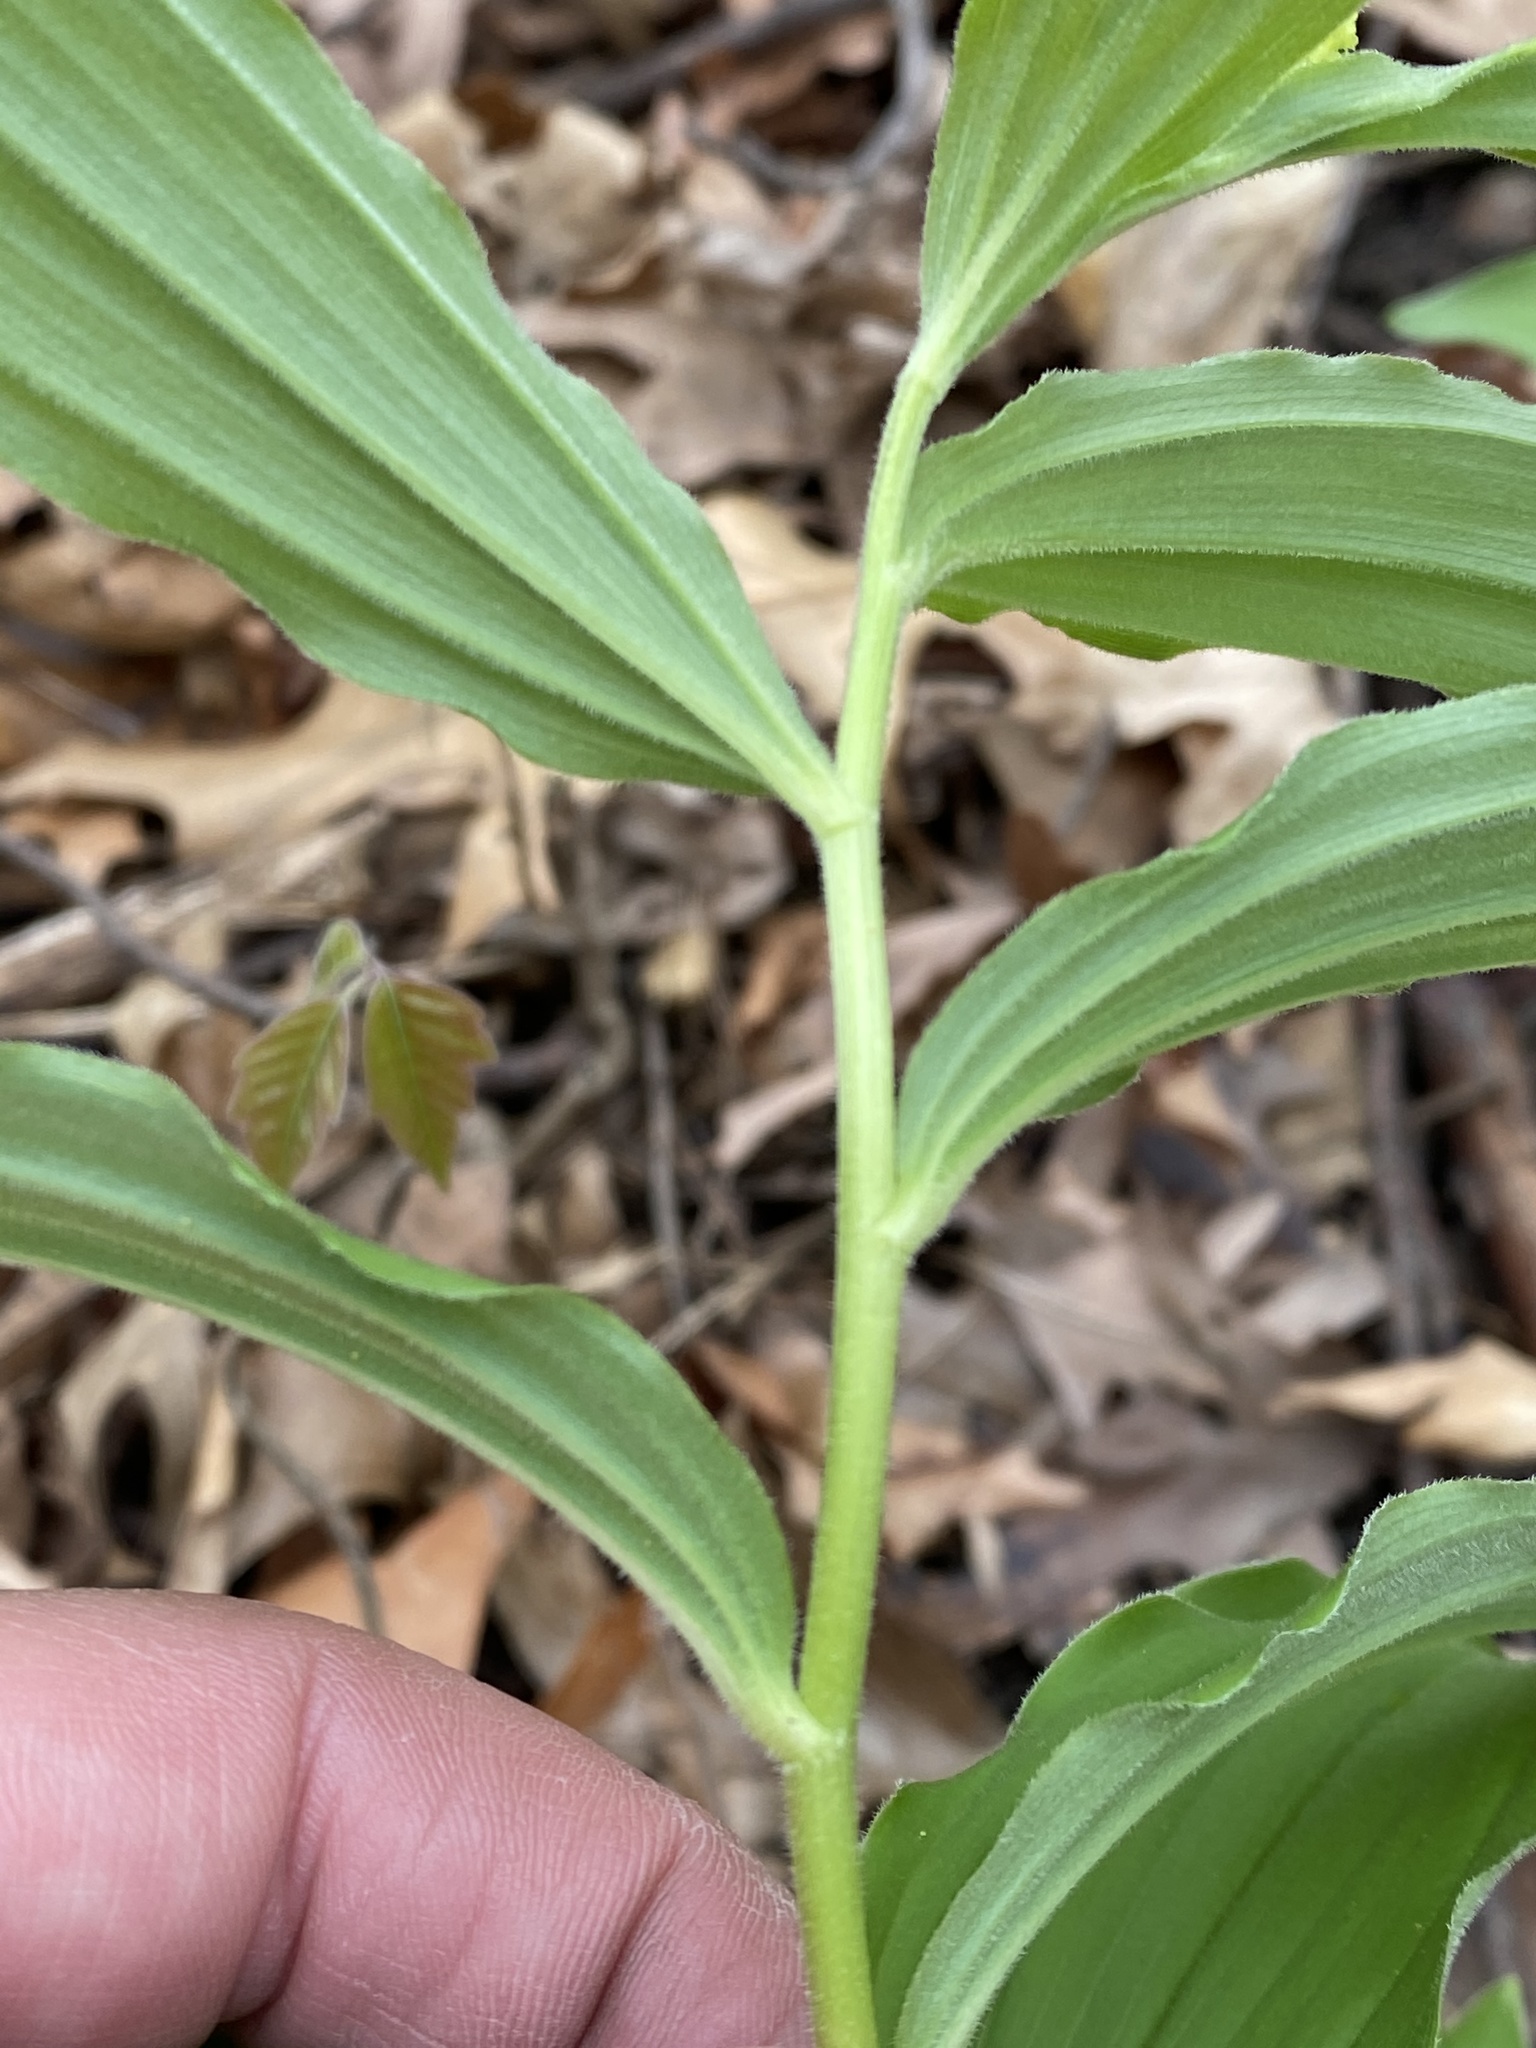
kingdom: Plantae
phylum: Tracheophyta
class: Liliopsida
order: Asparagales
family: Asparagaceae
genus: Maianthemum
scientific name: Maianthemum racemosum
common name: False spikenard
